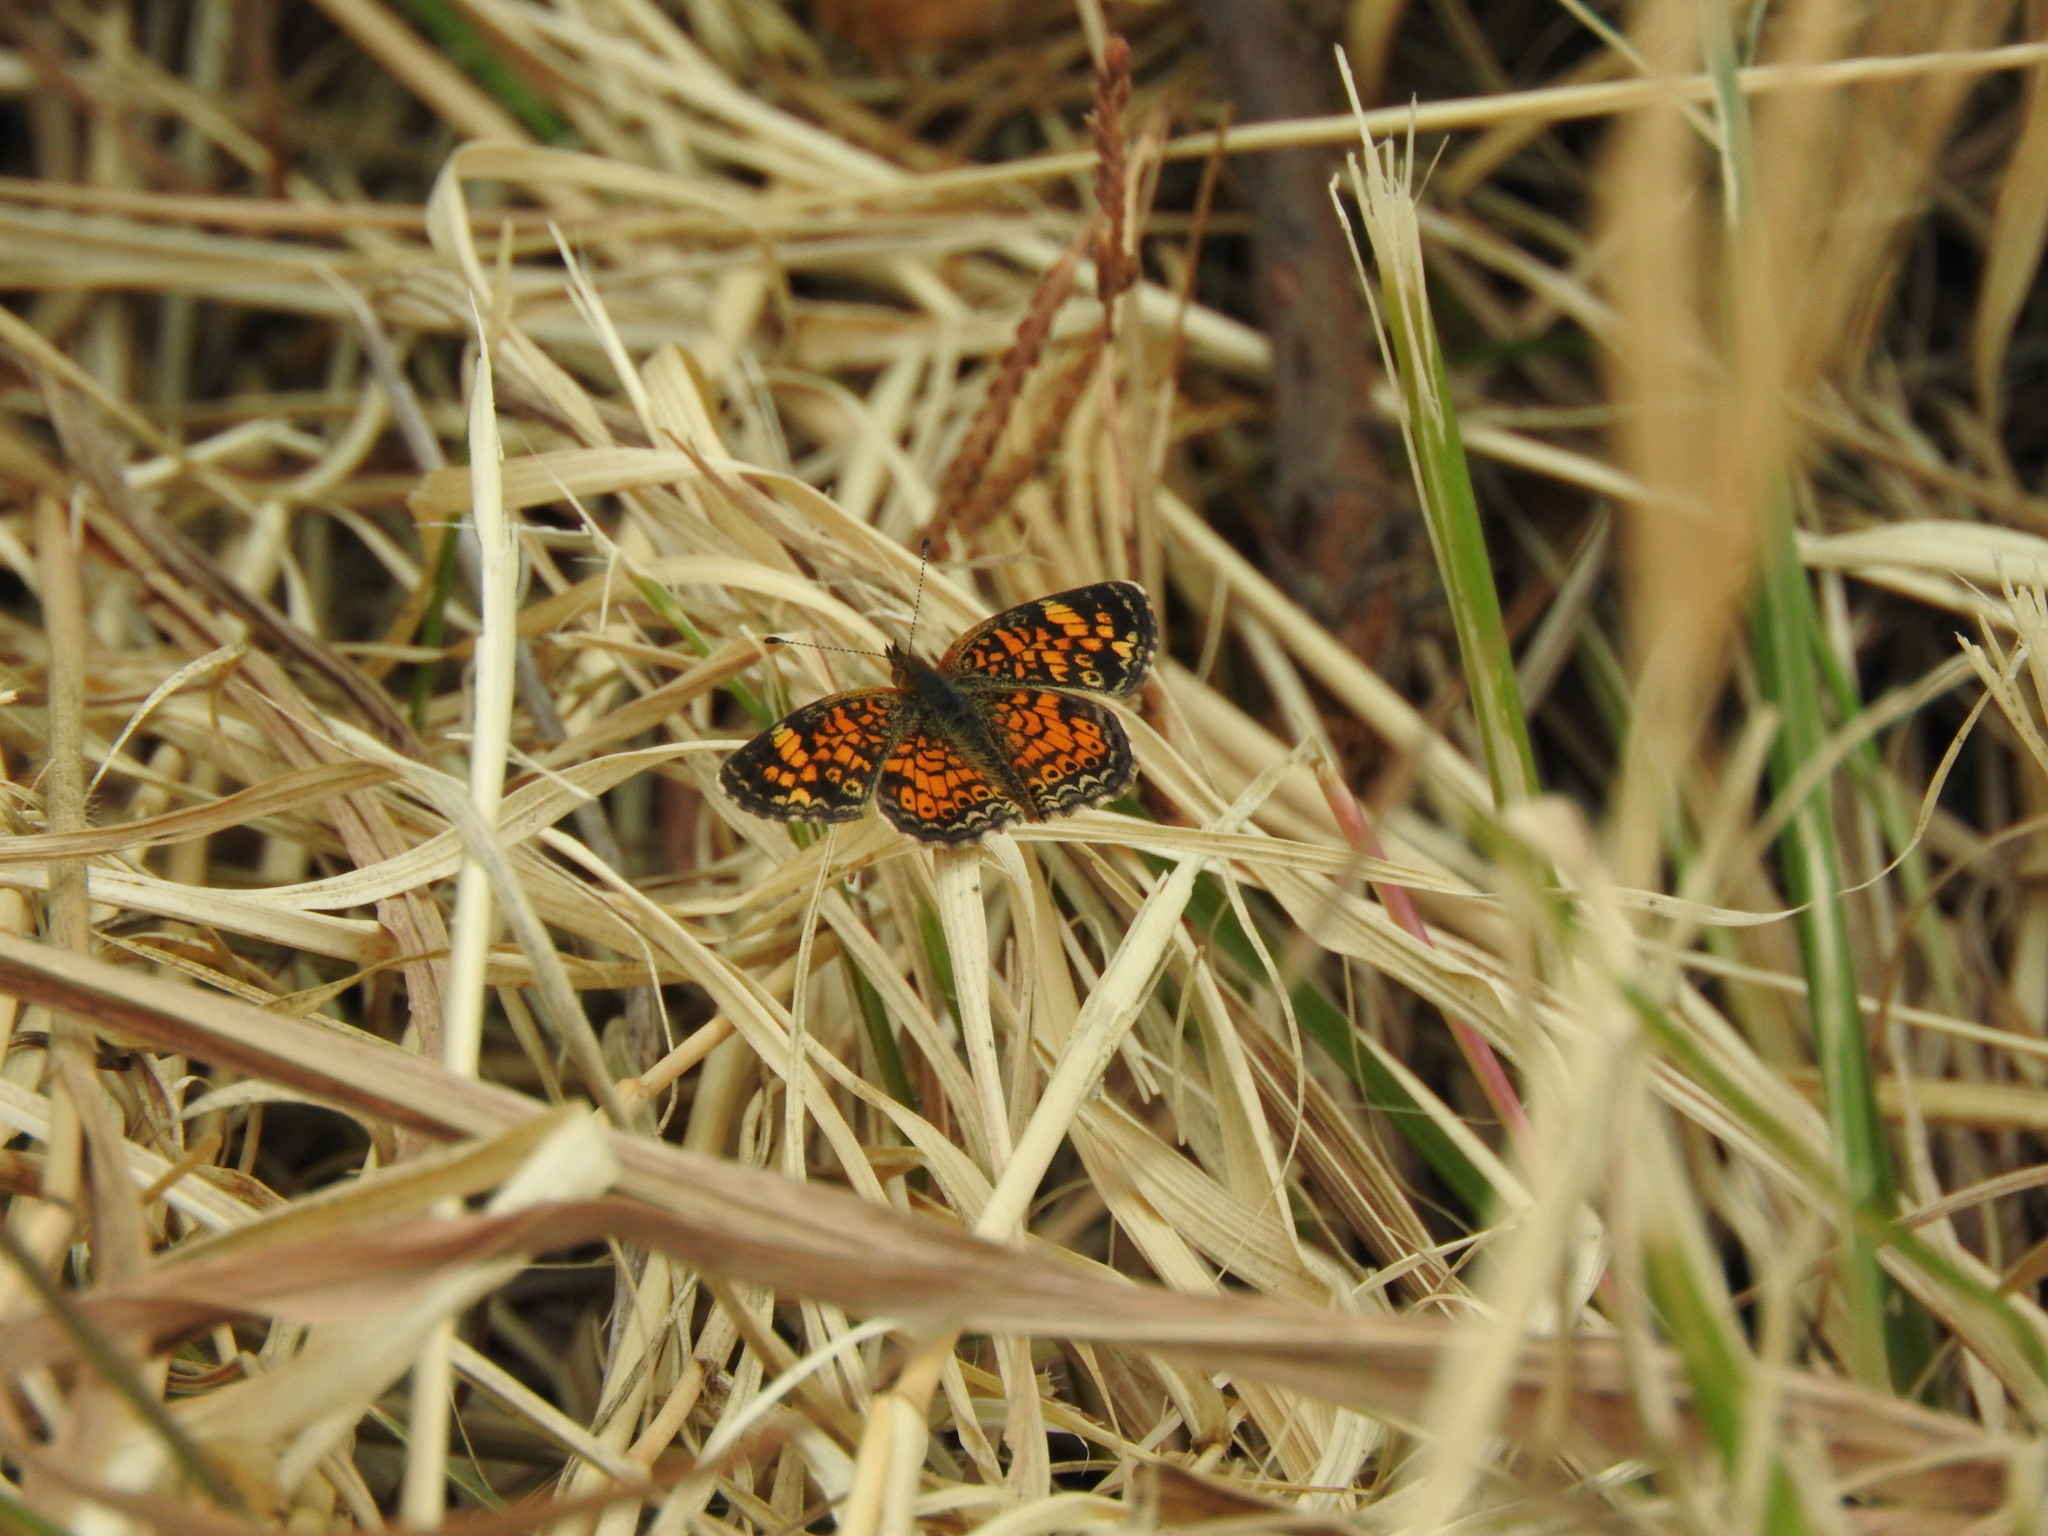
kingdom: Animalia
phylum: Arthropoda
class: Insecta
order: Lepidoptera
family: Nymphalidae
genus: Phyciodes
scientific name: Phyciodes tharos
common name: Pearl crescent
